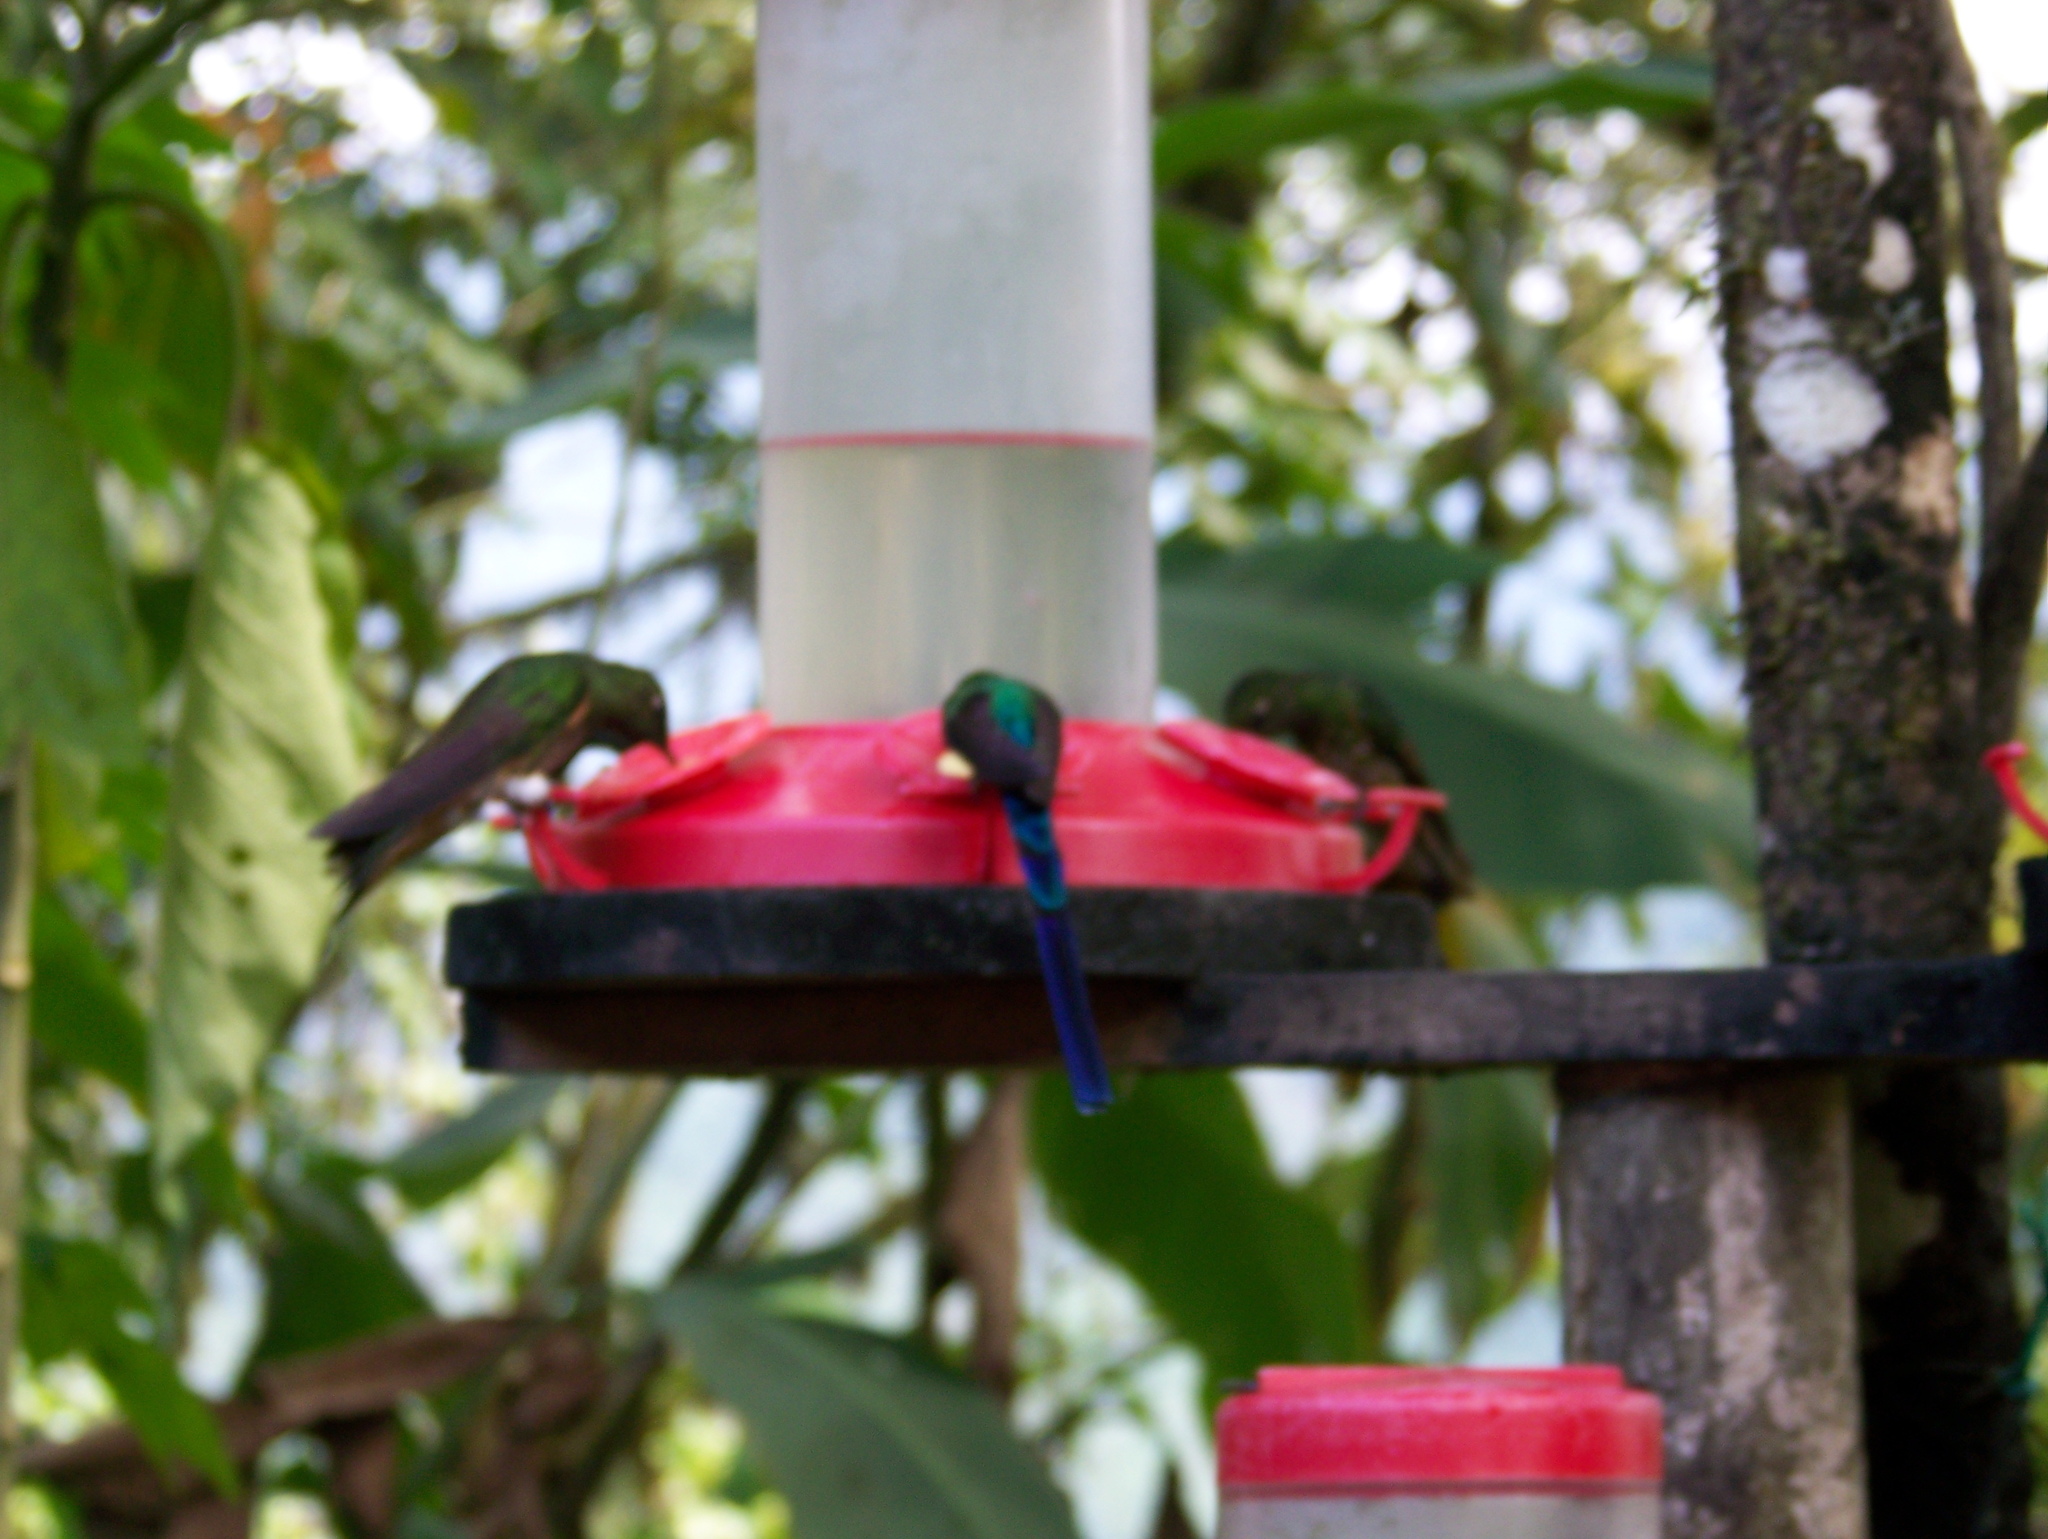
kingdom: Animalia
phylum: Chordata
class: Aves
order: Apodiformes
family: Trochilidae
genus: Aglaiocercus
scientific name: Aglaiocercus coelestis
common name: Violet-tailed sylph
